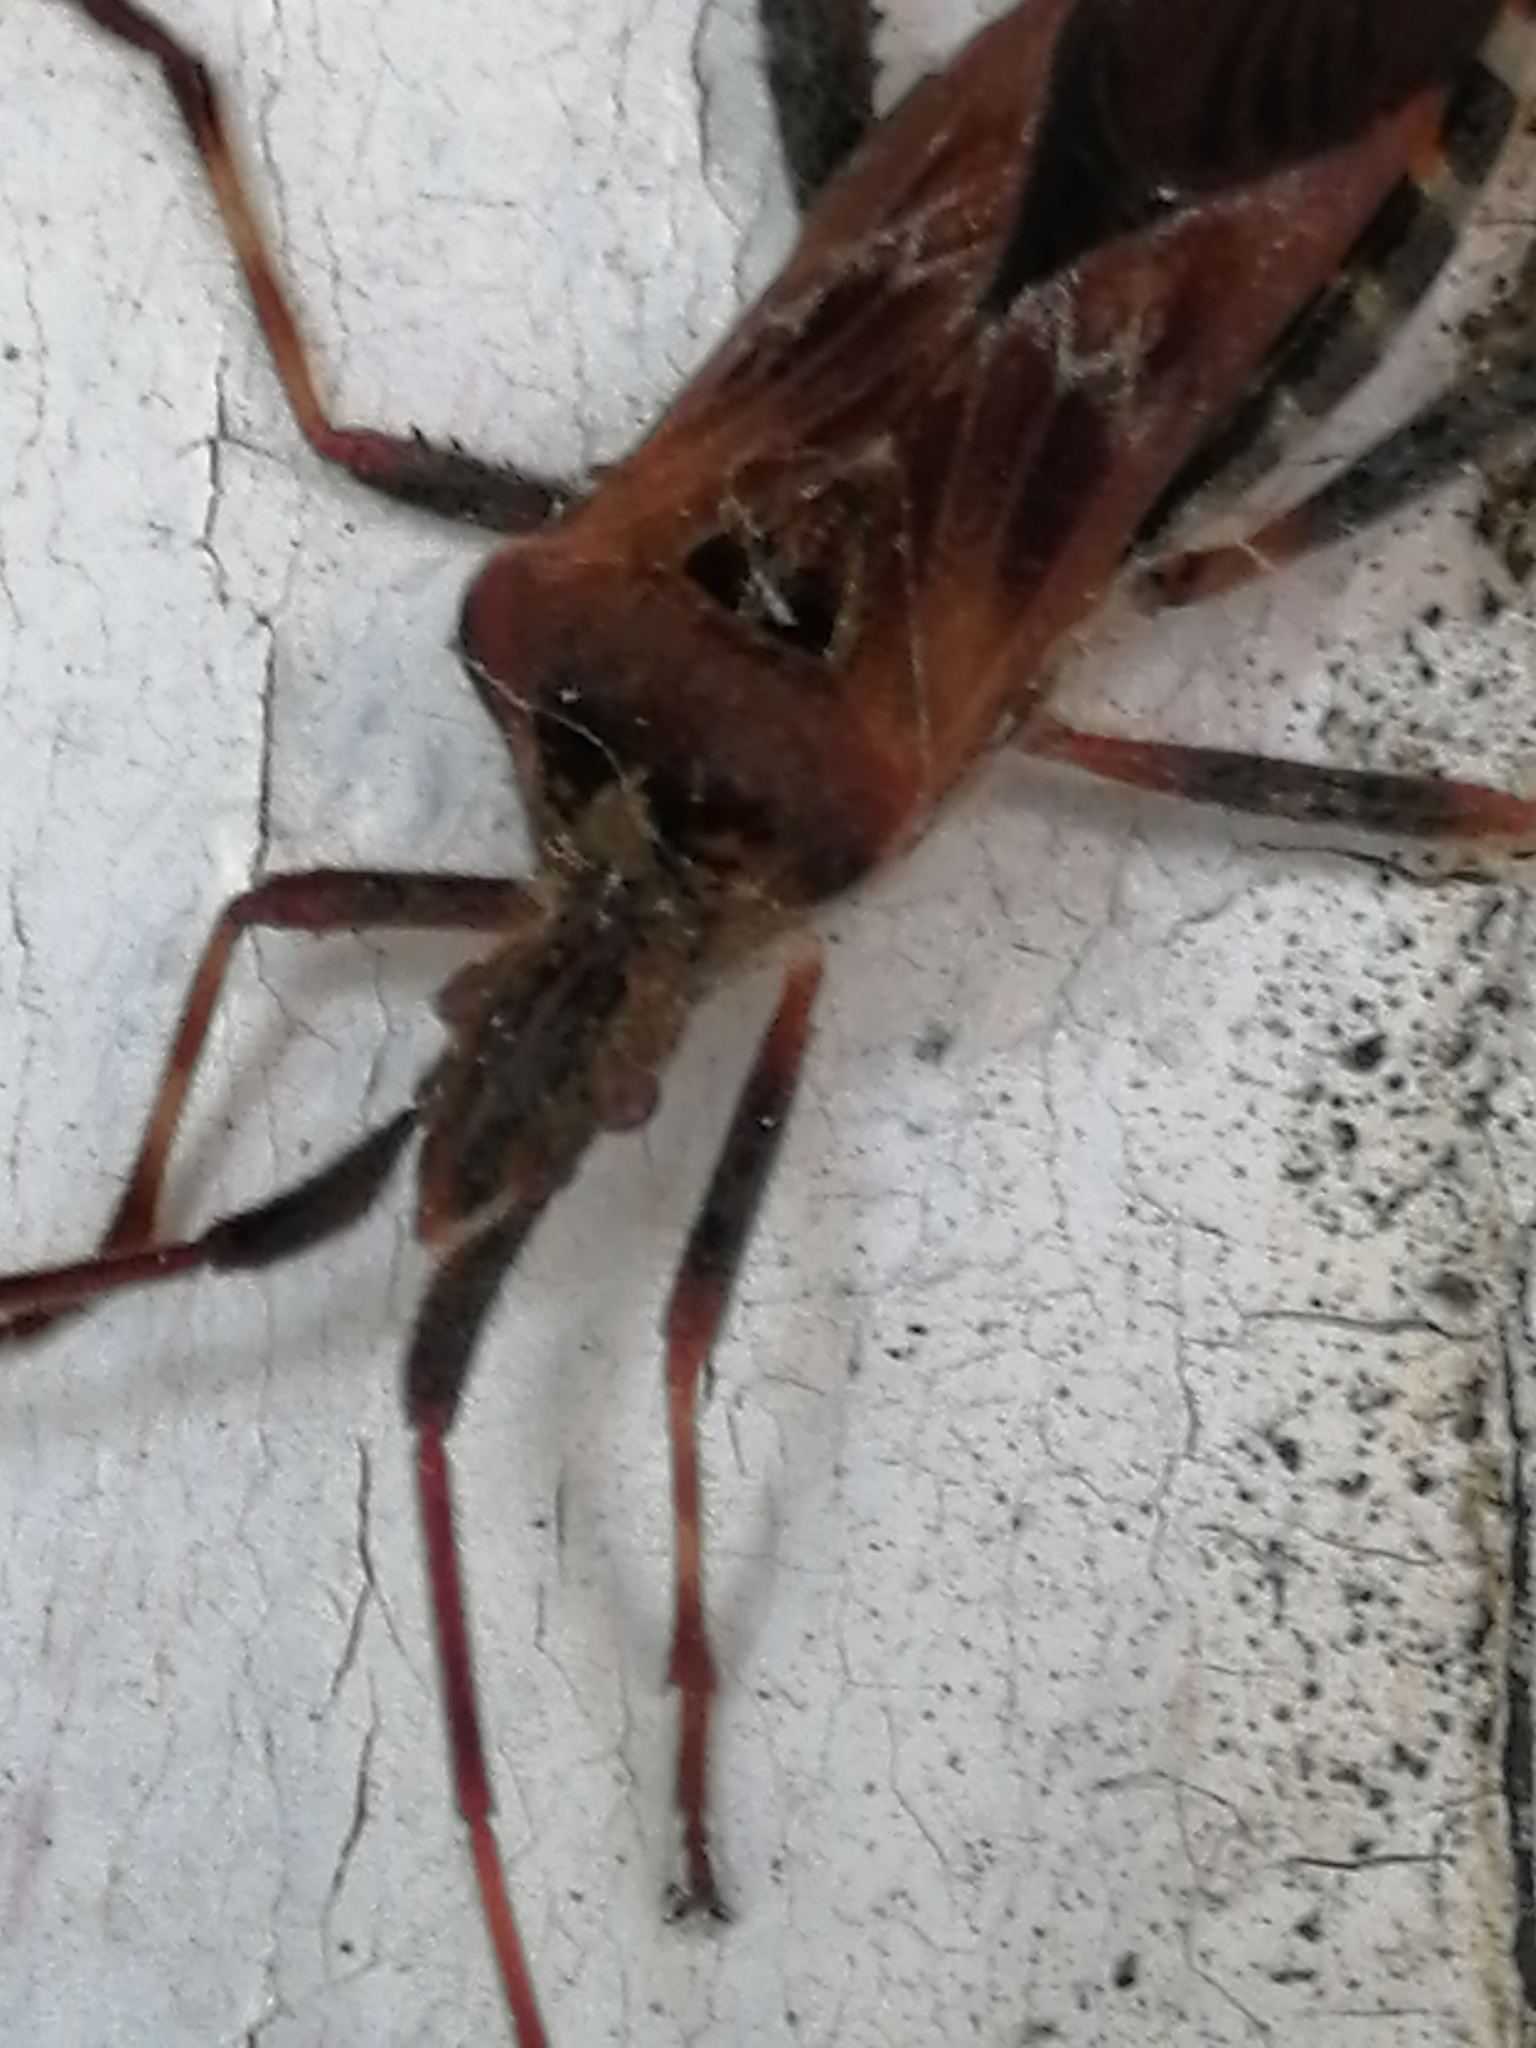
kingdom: Animalia
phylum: Arthropoda
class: Insecta
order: Hemiptera
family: Coreidae
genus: Leptoglossus
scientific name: Leptoglossus occidentalis
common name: Western conifer-seed bug
